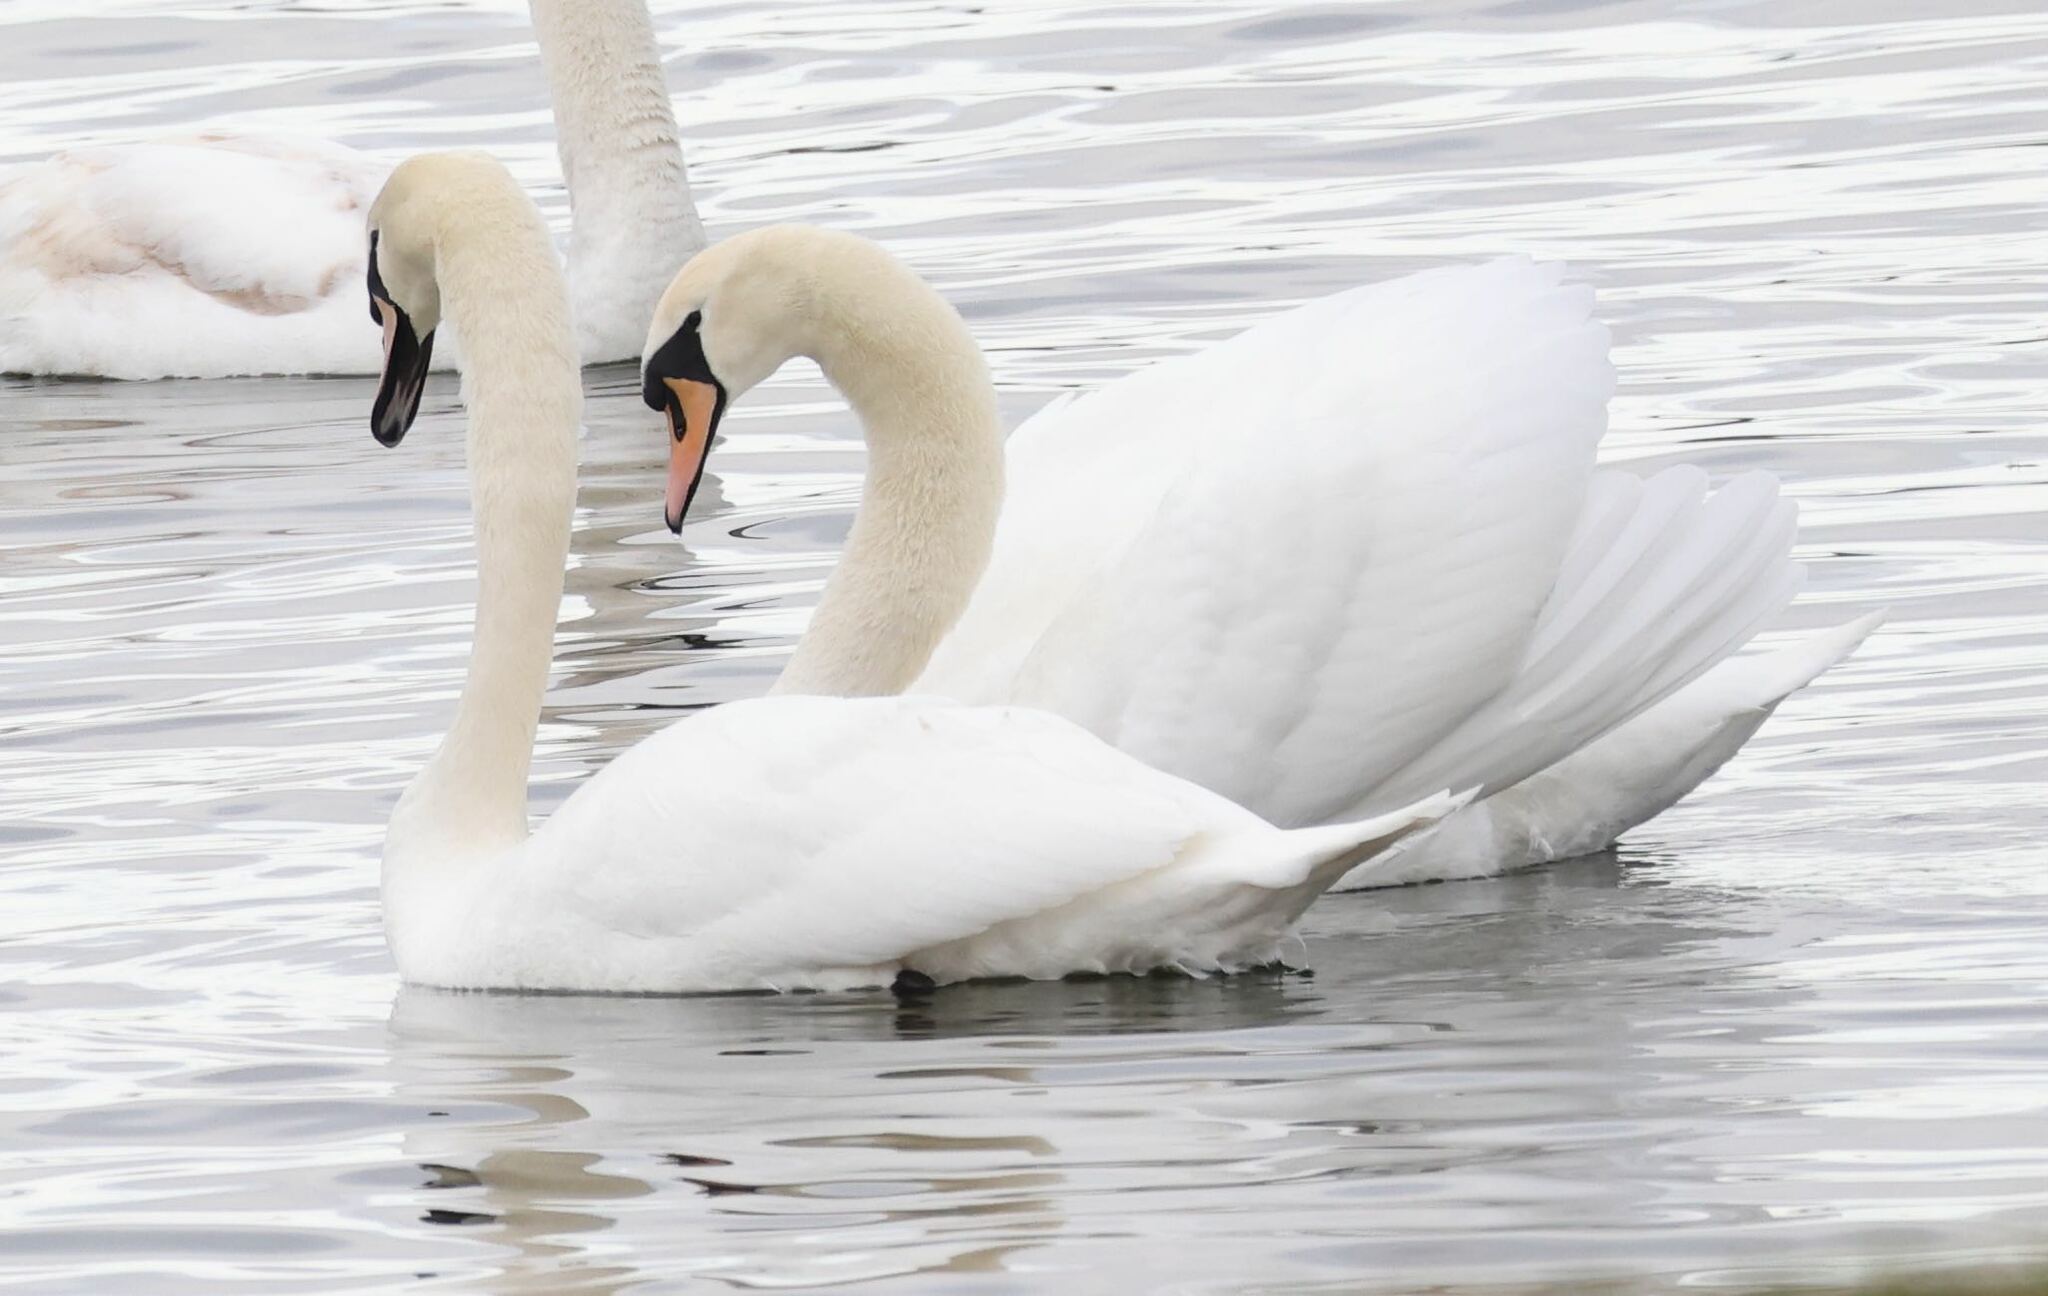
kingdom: Animalia
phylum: Chordata
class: Aves
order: Anseriformes
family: Anatidae
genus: Cygnus
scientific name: Cygnus olor
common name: Mute swan
